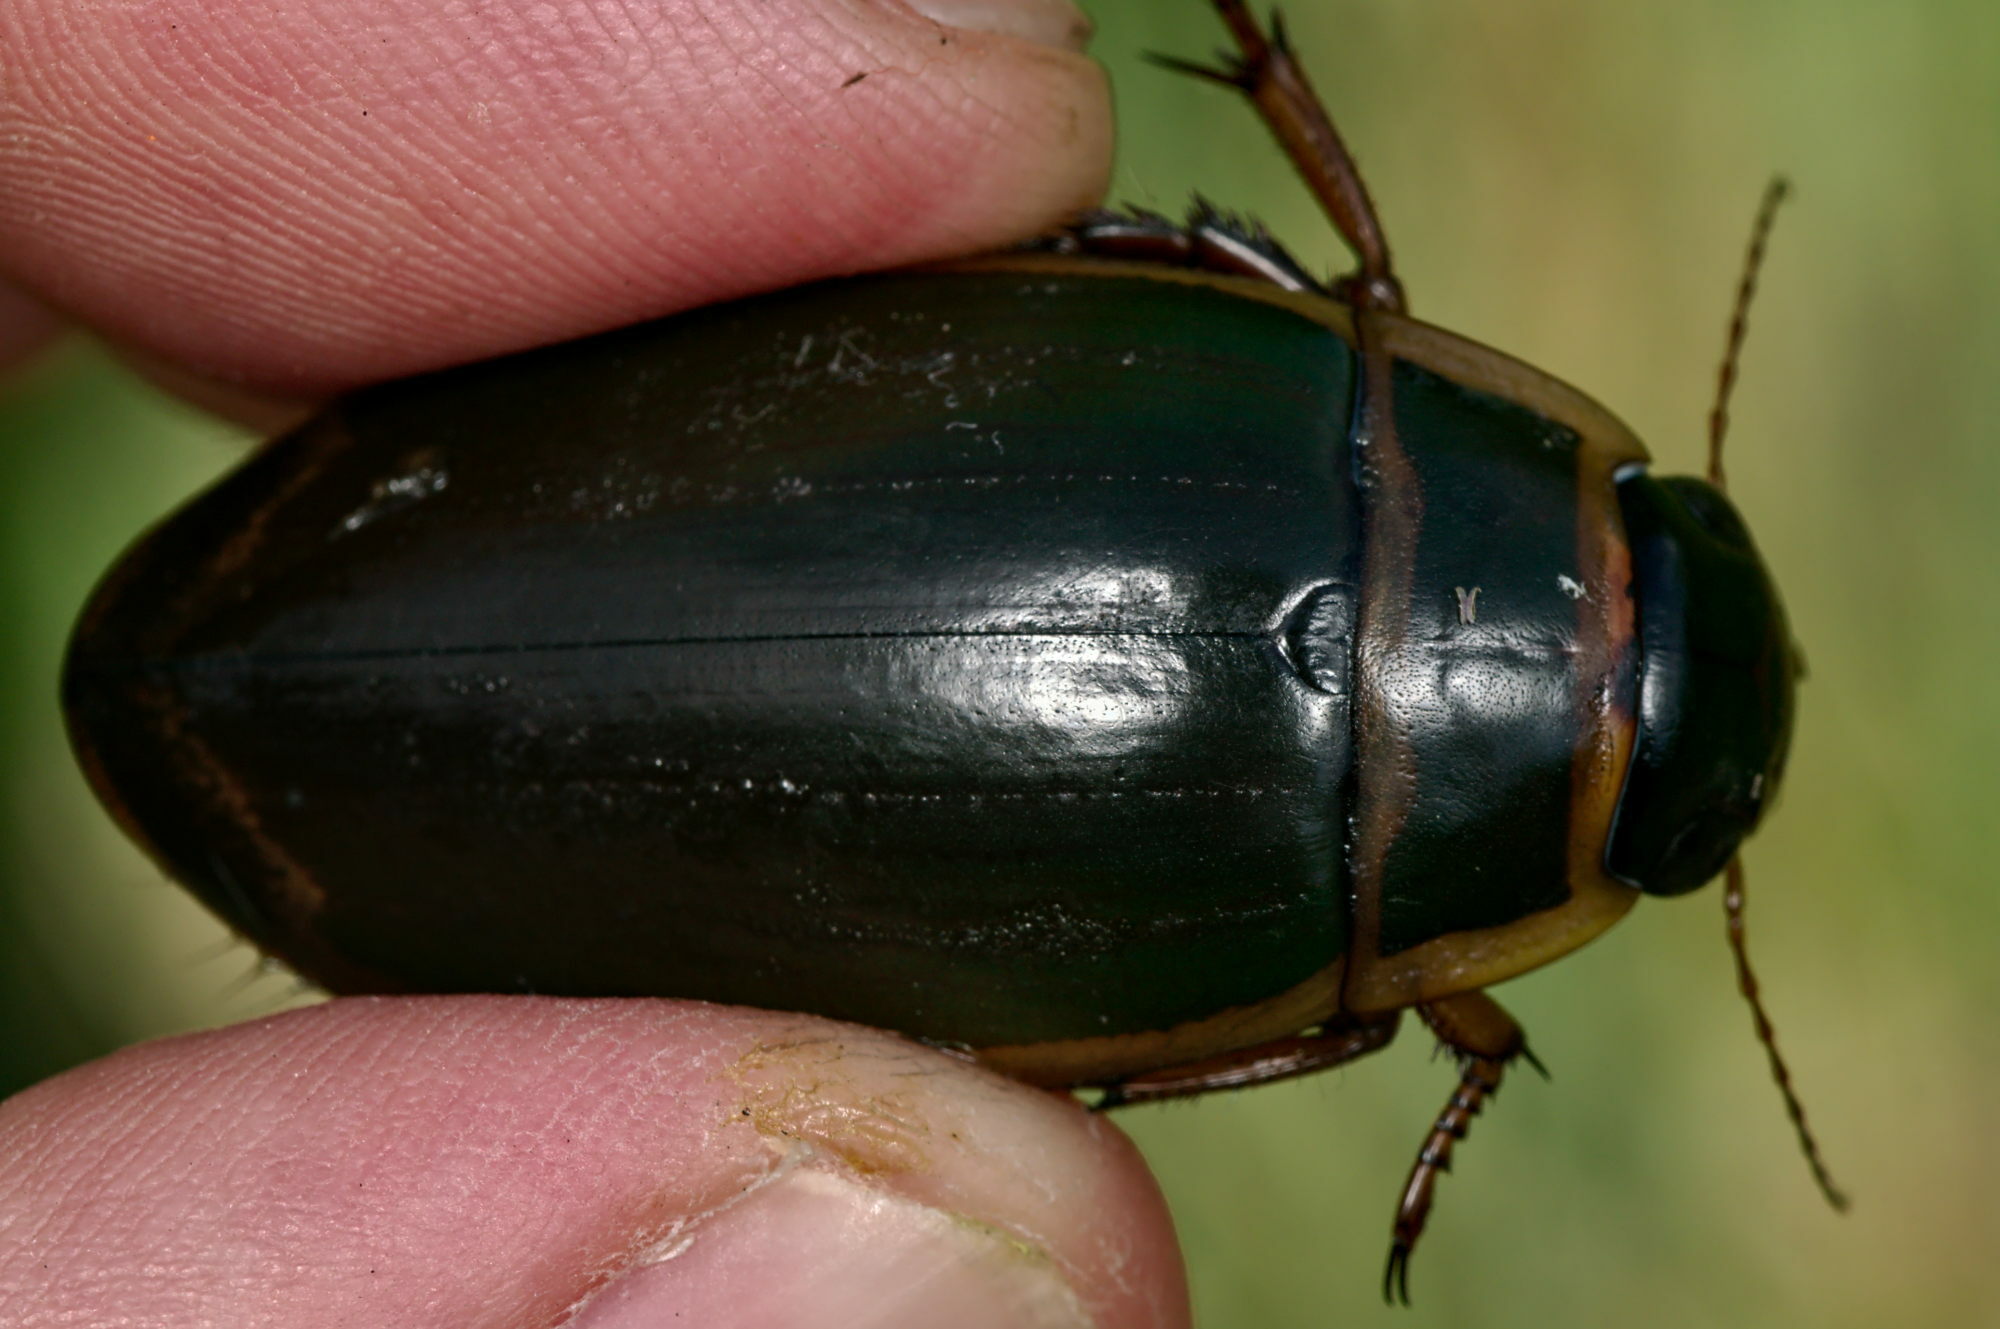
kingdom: Animalia
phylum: Arthropoda
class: Insecta
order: Coleoptera
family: Dytiscidae
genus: Dytiscus
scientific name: Dytiscus marginalis
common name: Great water beetle
